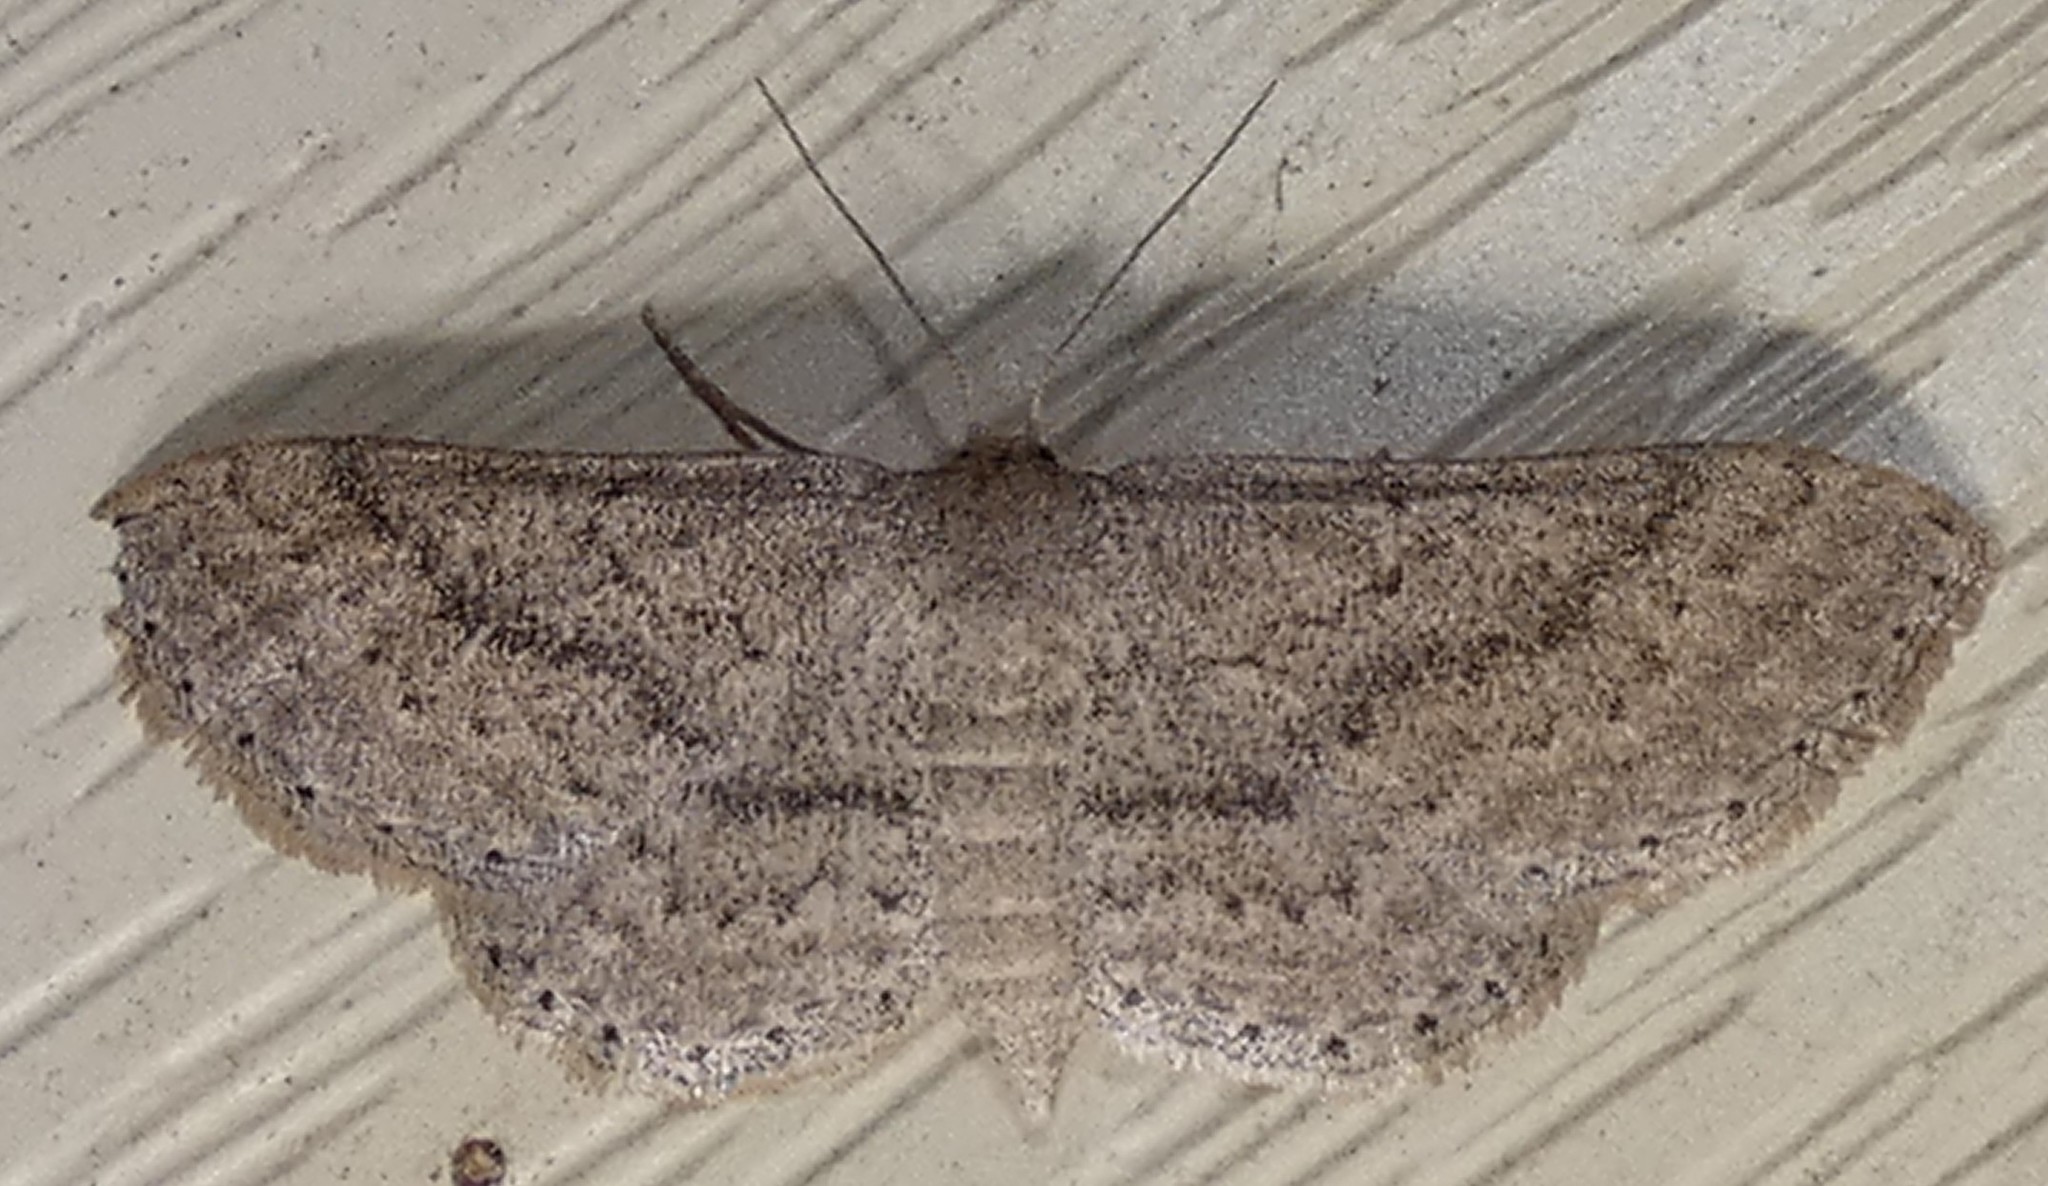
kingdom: Animalia
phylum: Arthropoda
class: Insecta
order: Lepidoptera
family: Geometridae
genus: Lobocleta
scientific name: Lobocleta ossularia
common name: Drab brown wave
